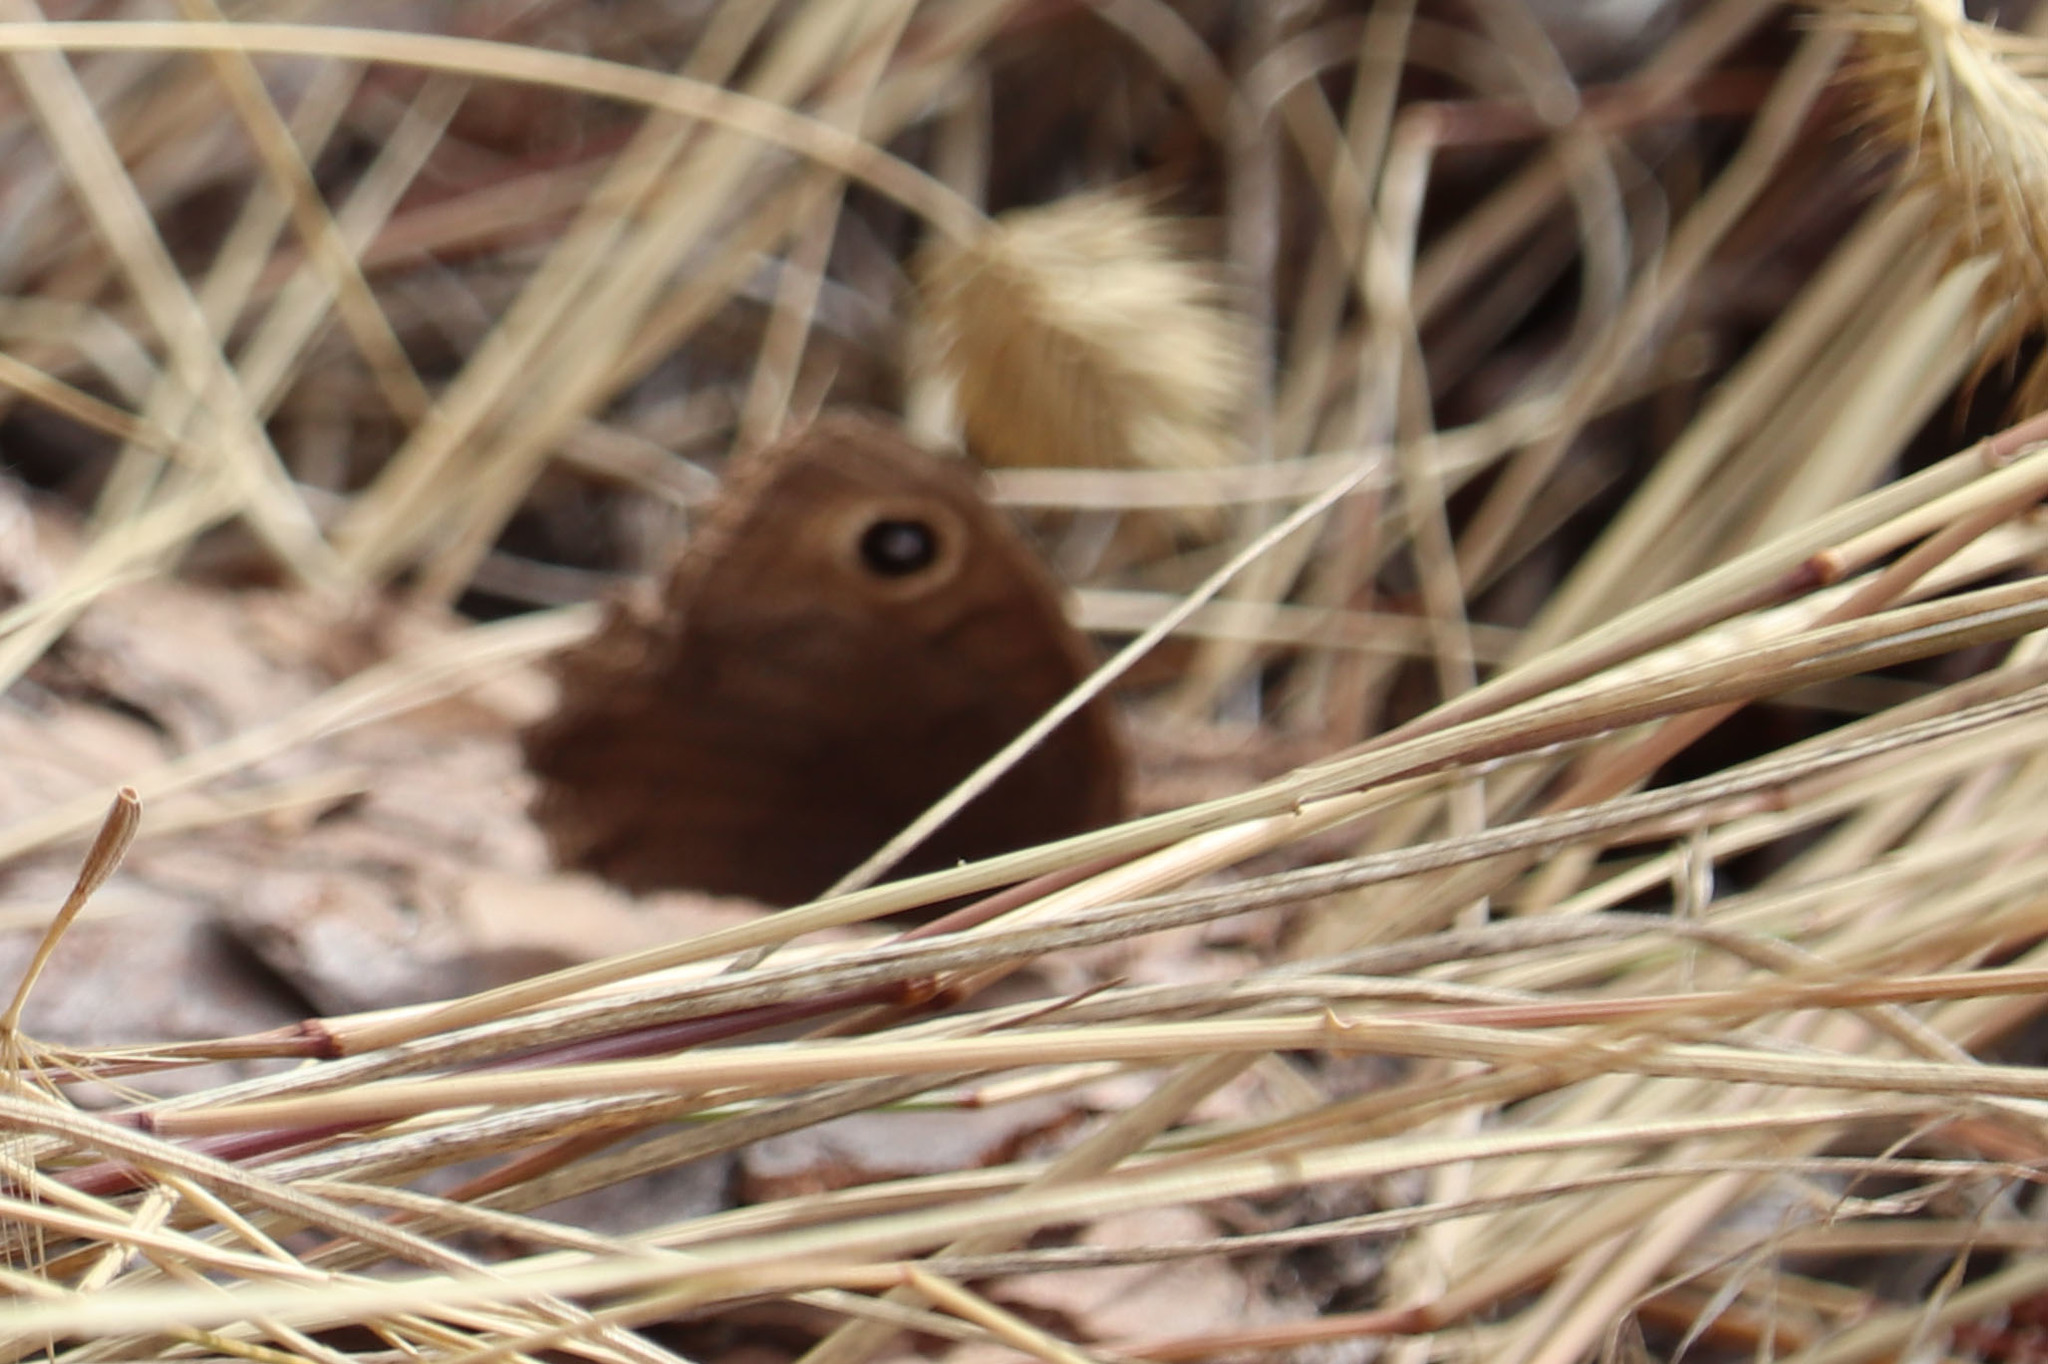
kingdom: Animalia
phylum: Arthropoda
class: Insecta
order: Lepidoptera
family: Nymphalidae
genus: Cercyonis
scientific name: Cercyonis pegala
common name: Common wood-nymph
